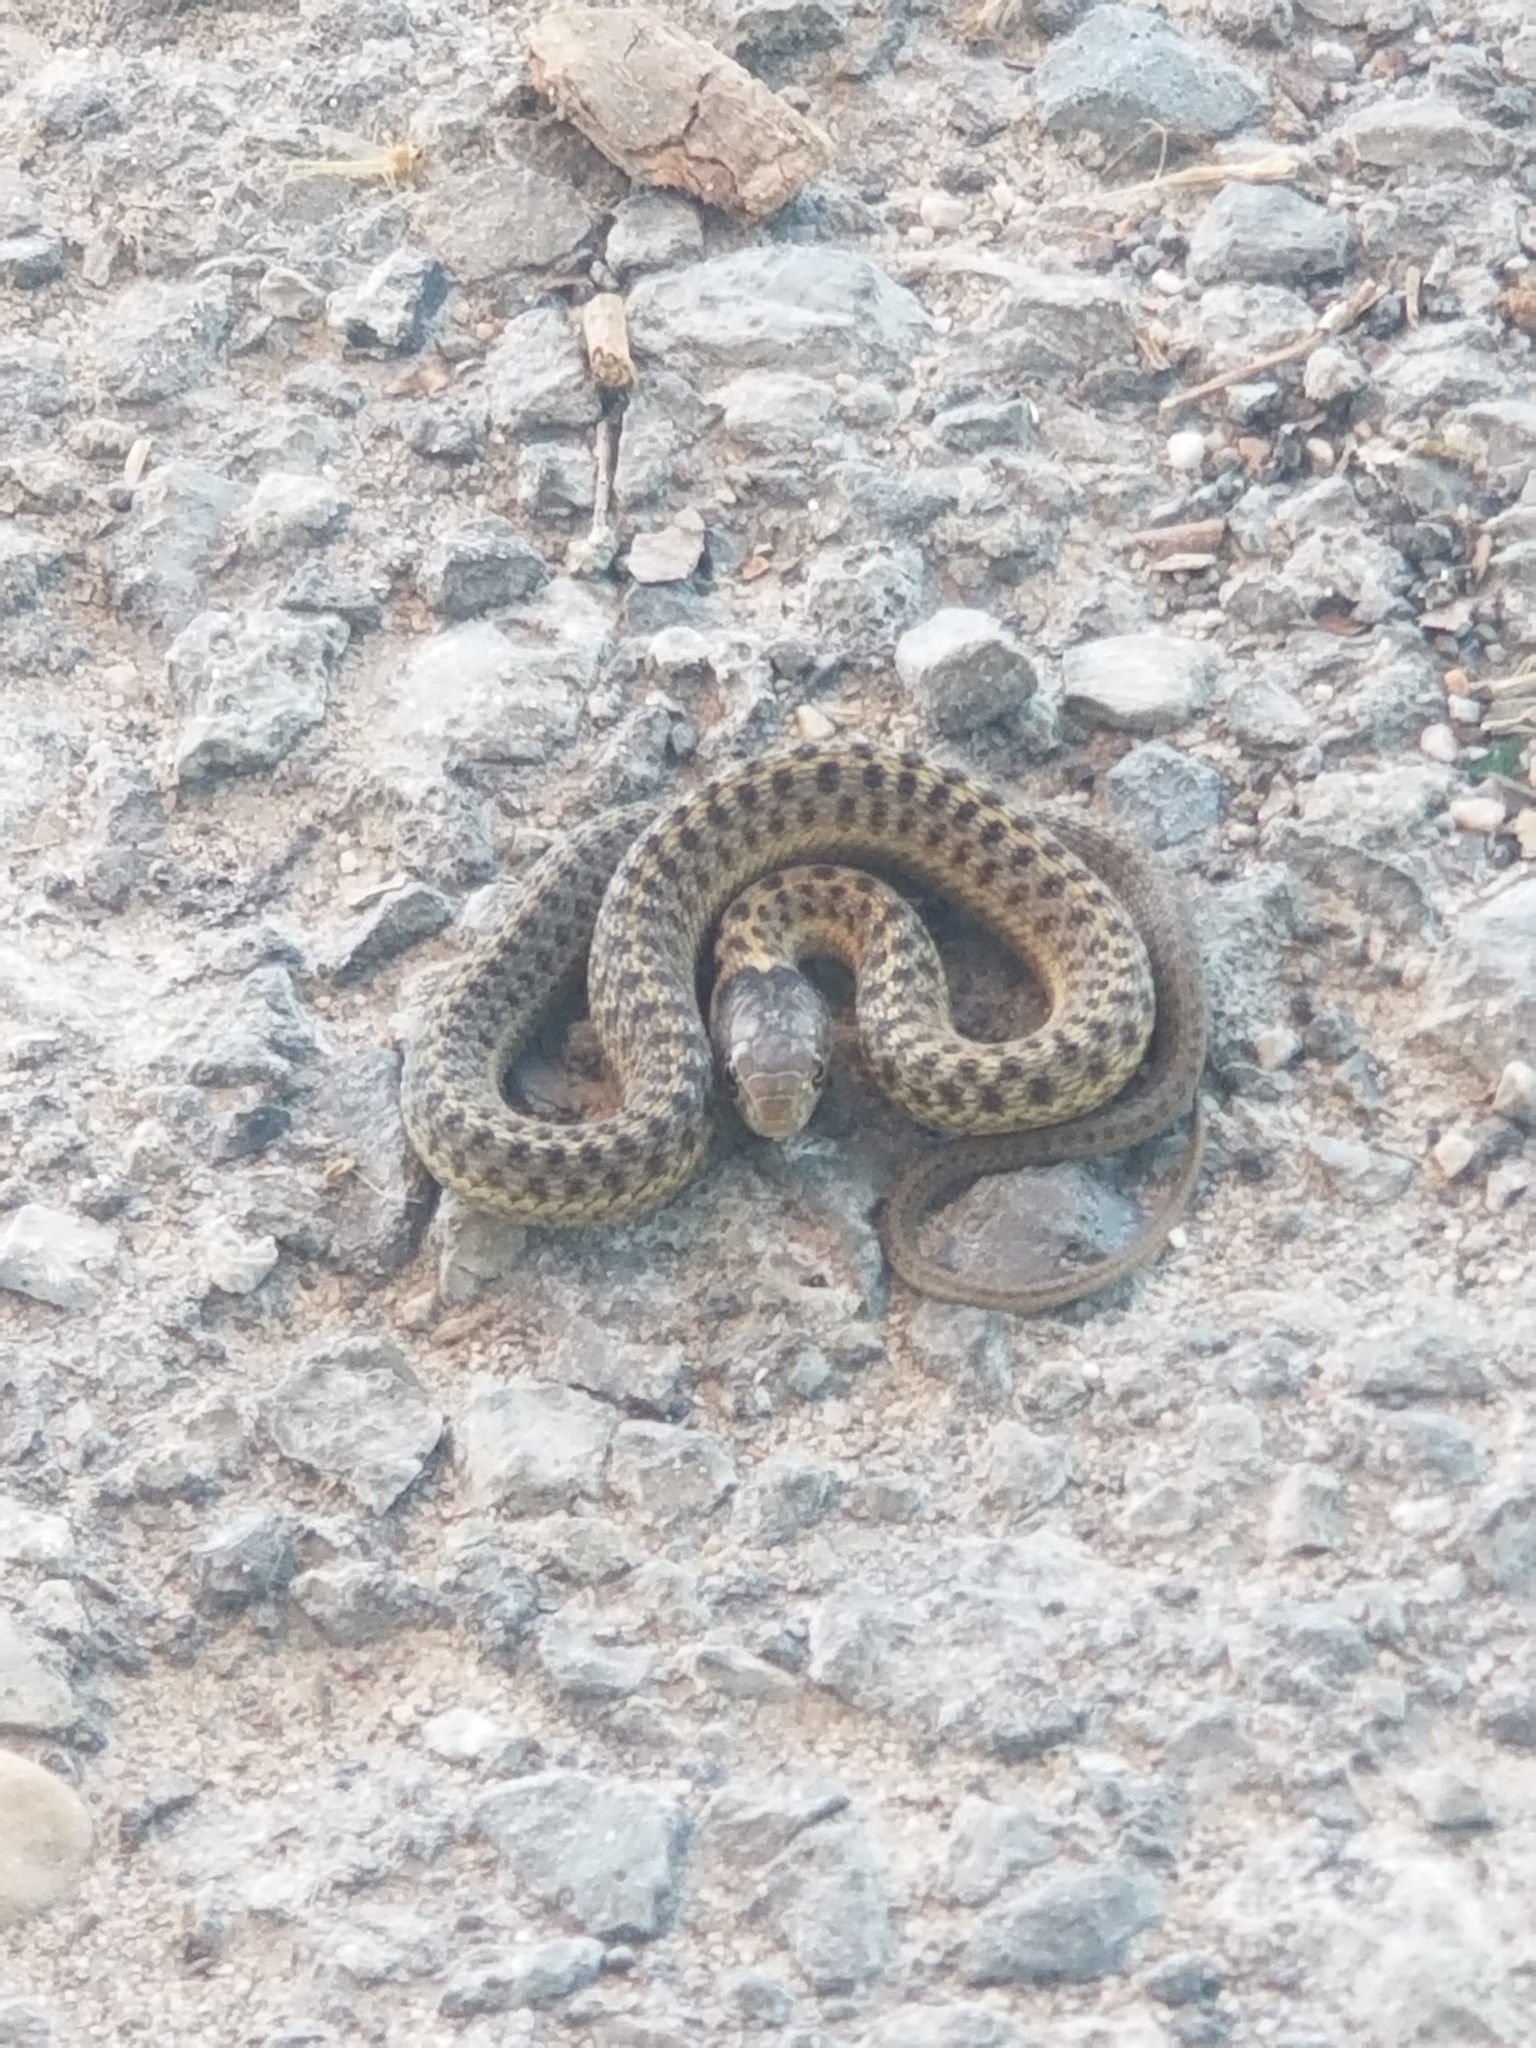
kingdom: Animalia
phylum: Chordata
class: Squamata
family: Colubridae
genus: Thamnophis
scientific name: Thamnophis elegans
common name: Western terrestrial garter snake
